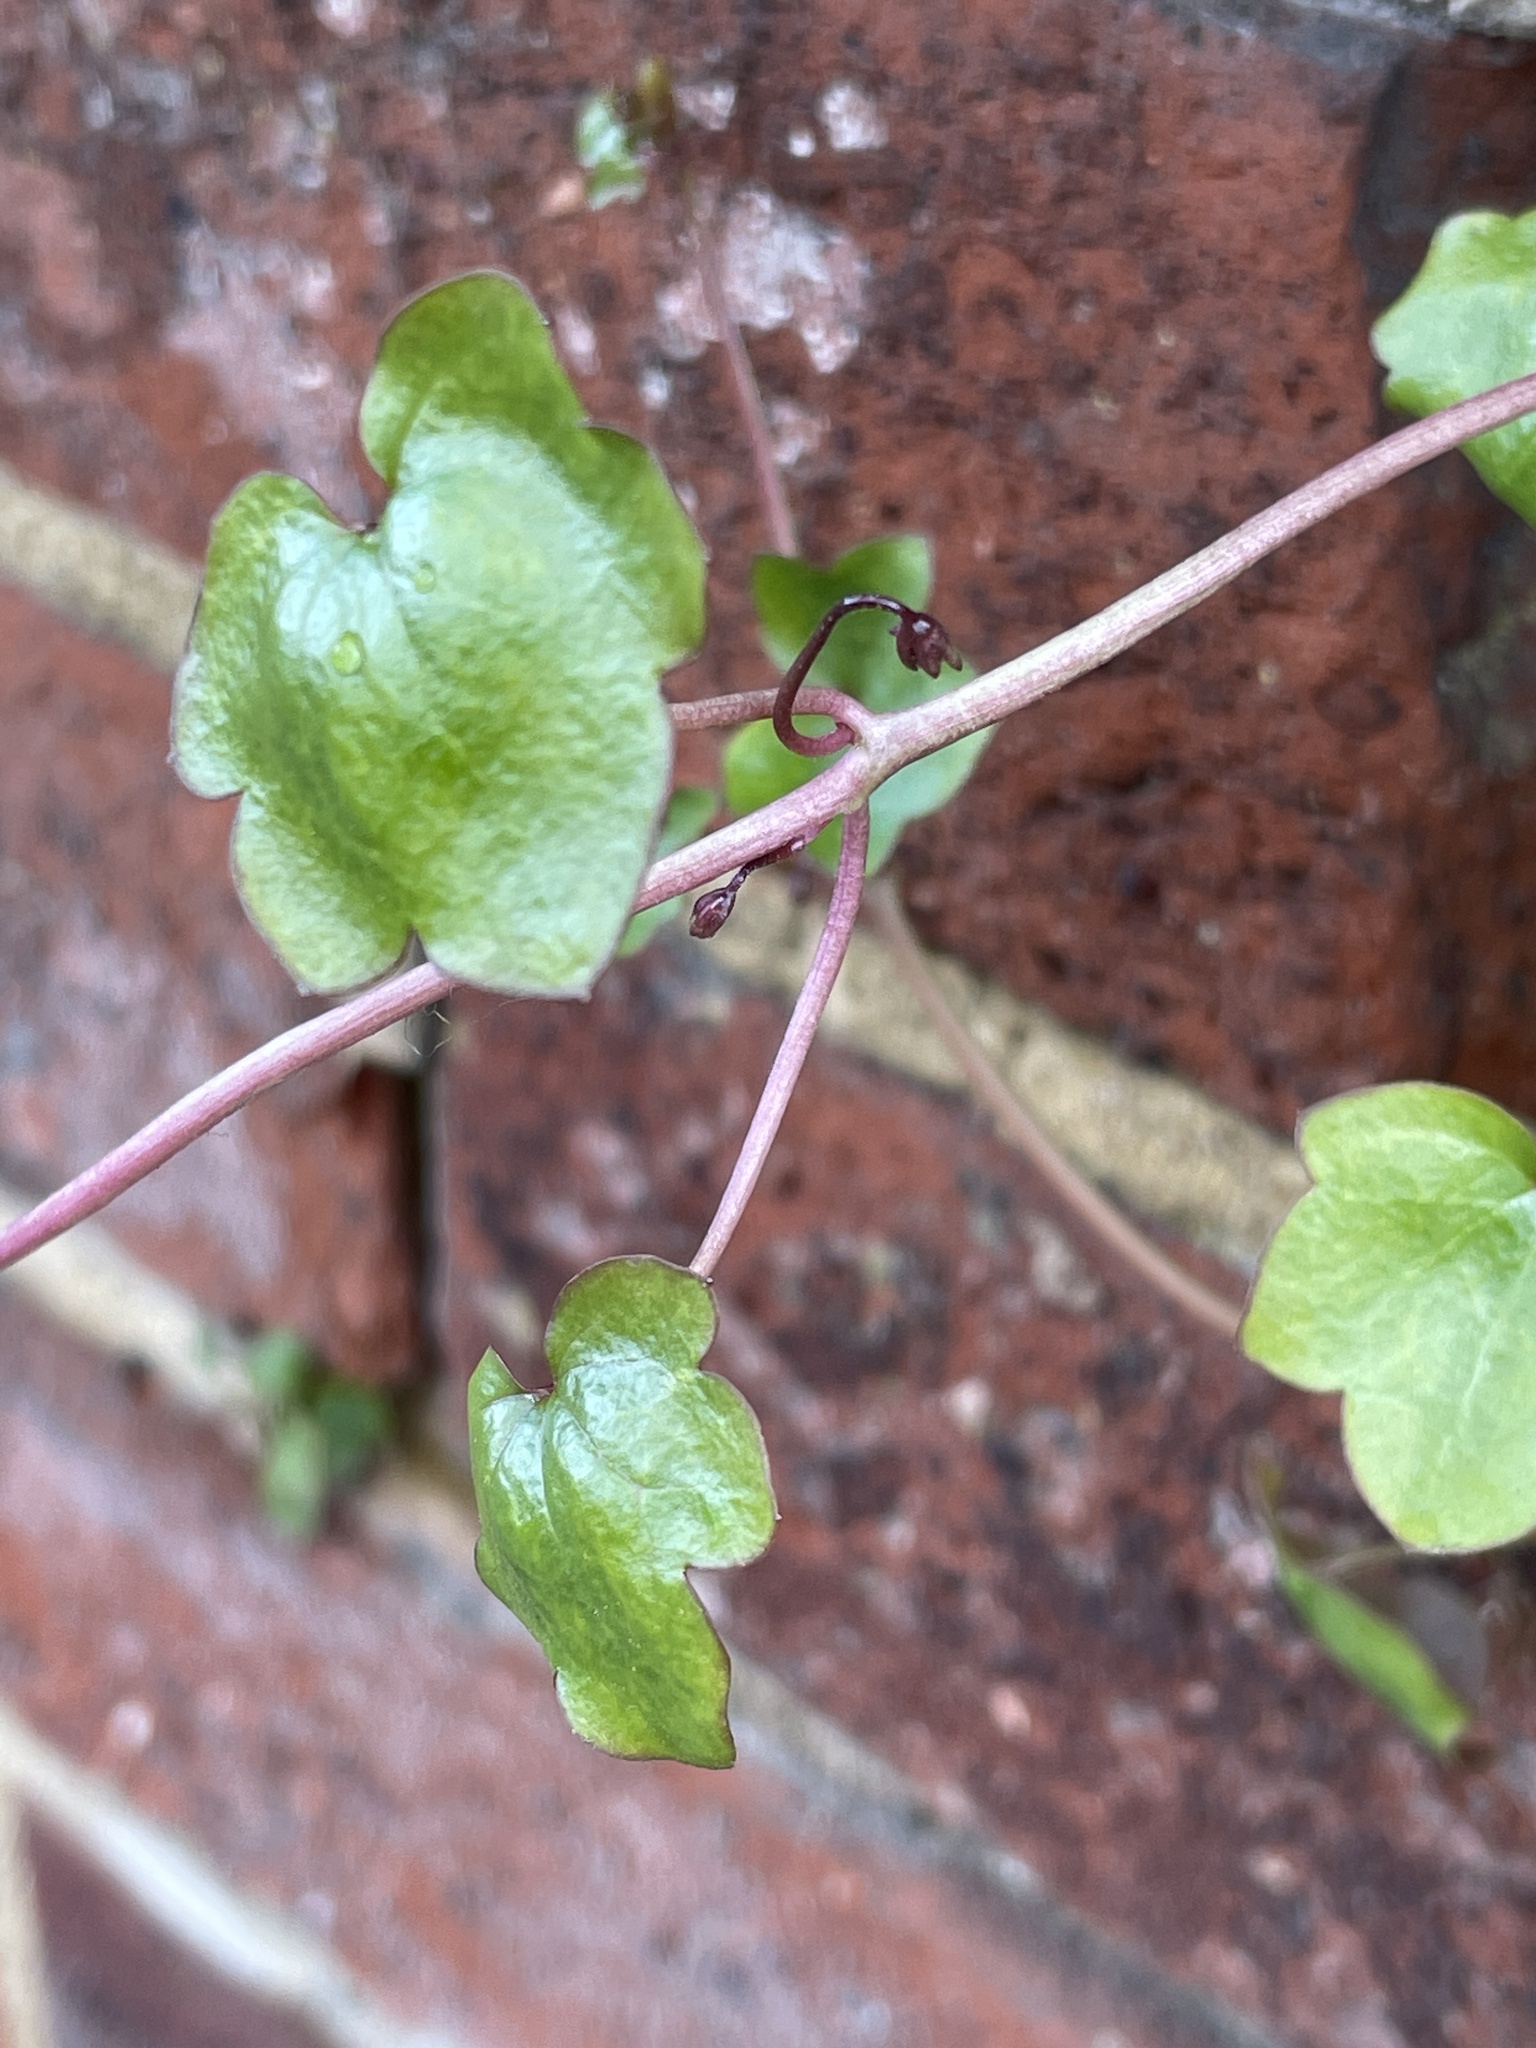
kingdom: Plantae
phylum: Tracheophyta
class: Magnoliopsida
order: Lamiales
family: Plantaginaceae
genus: Cymbalaria
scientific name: Cymbalaria muralis
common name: Ivy-leaved toadflax
